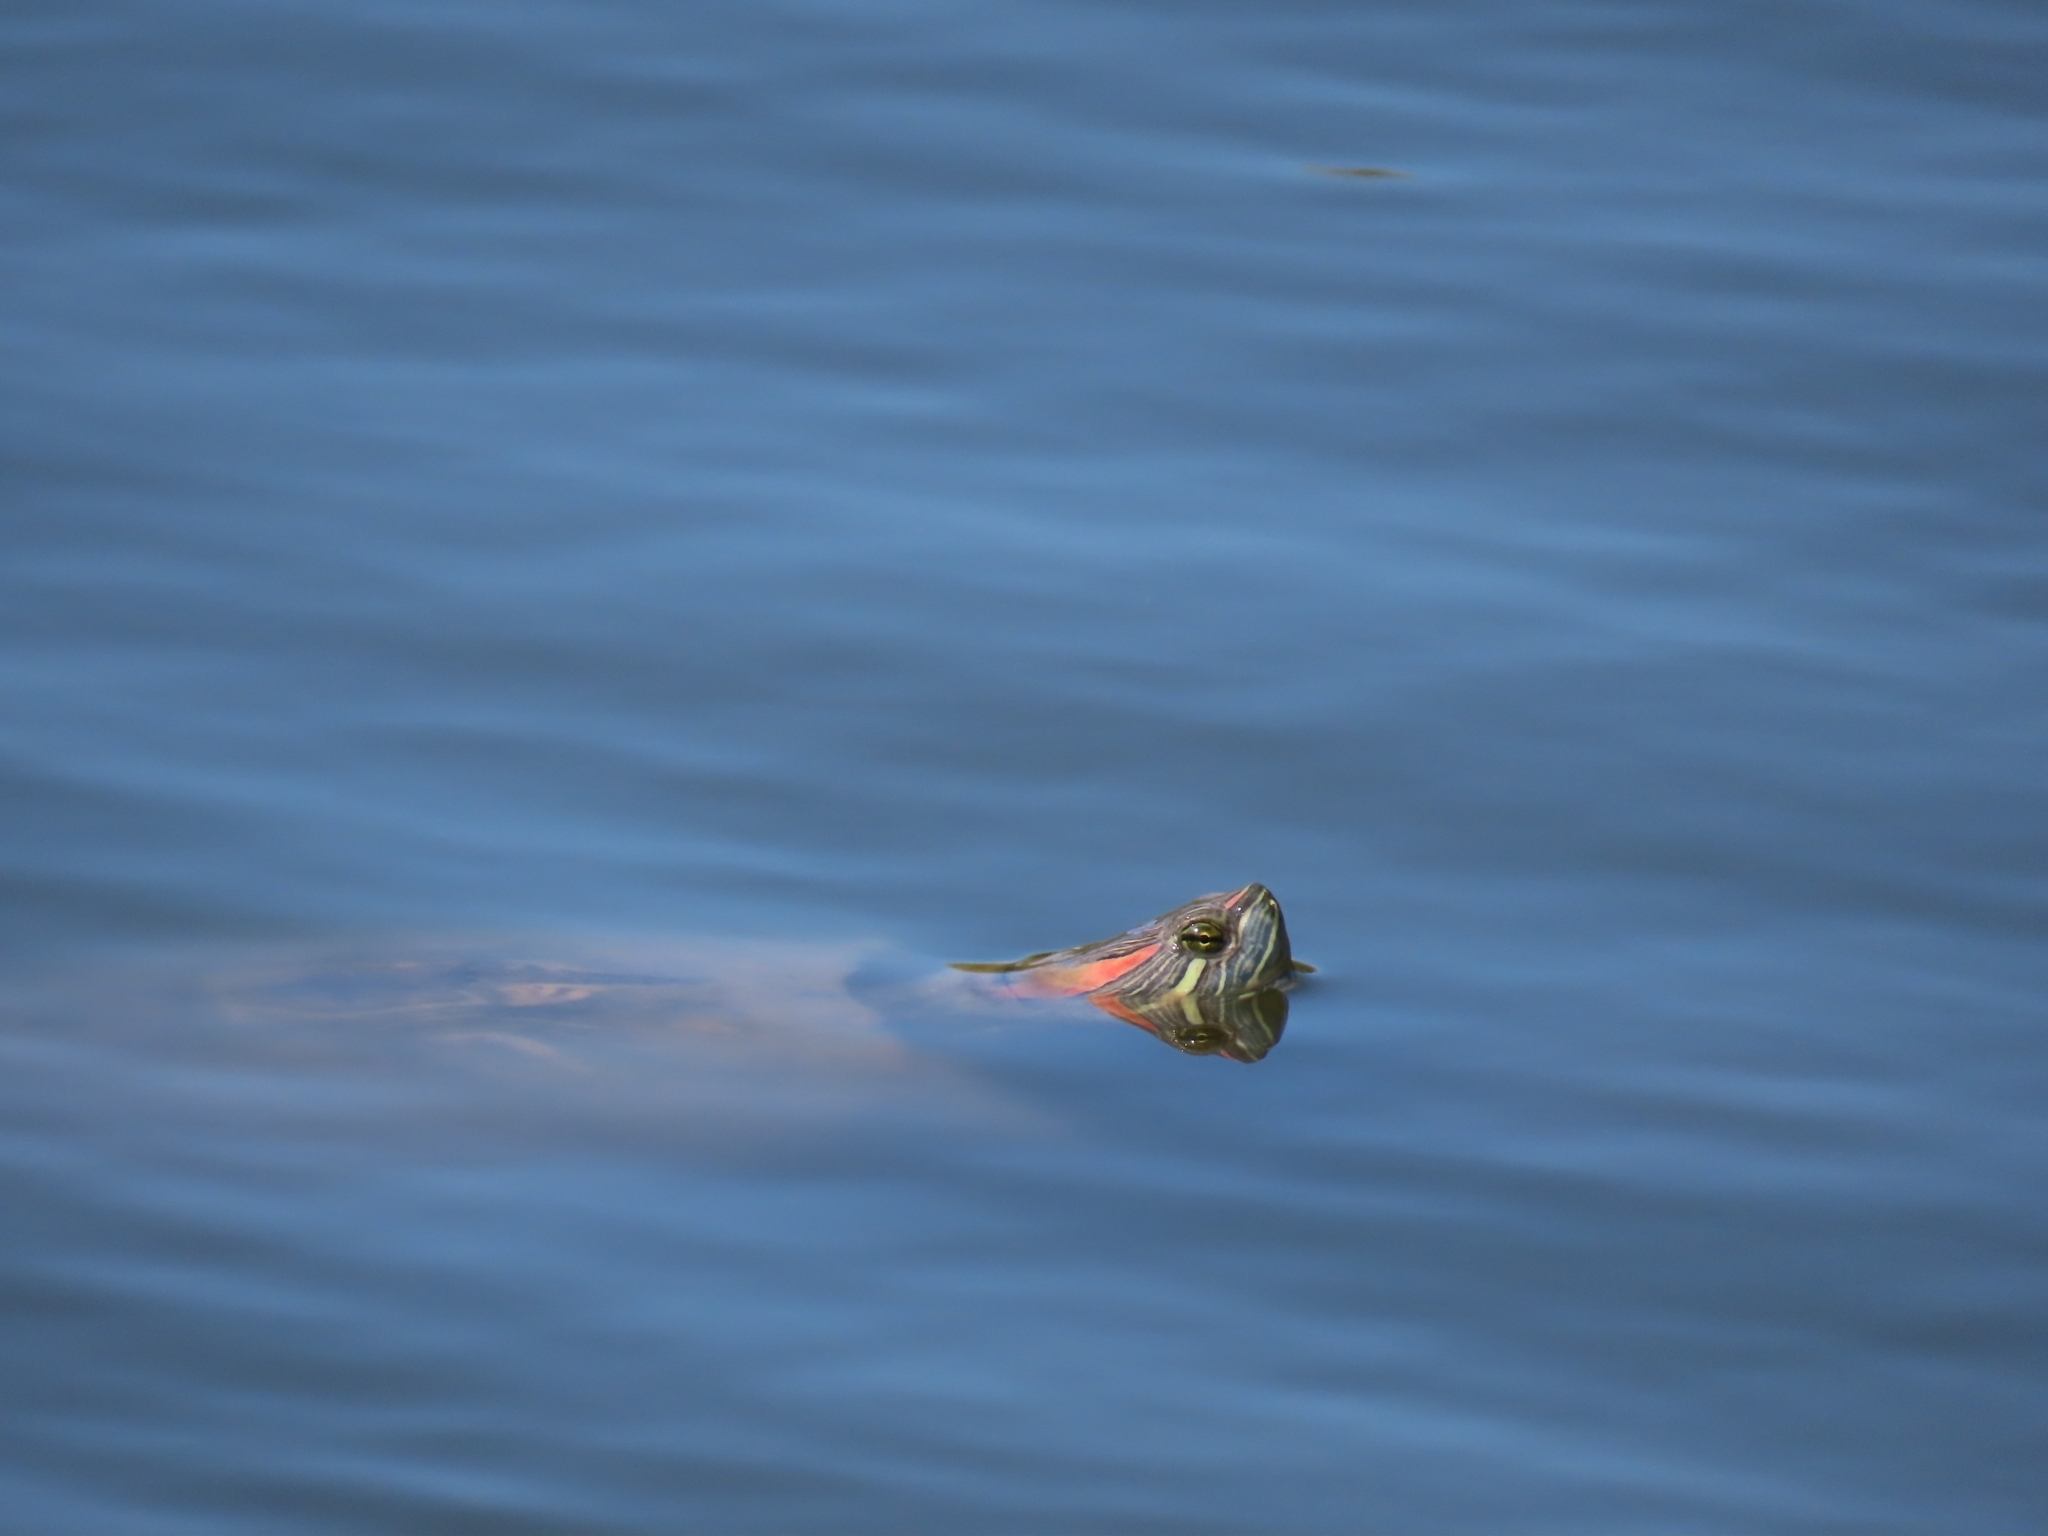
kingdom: Animalia
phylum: Chordata
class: Testudines
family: Emydidae
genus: Trachemys
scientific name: Trachemys scripta
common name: Slider
